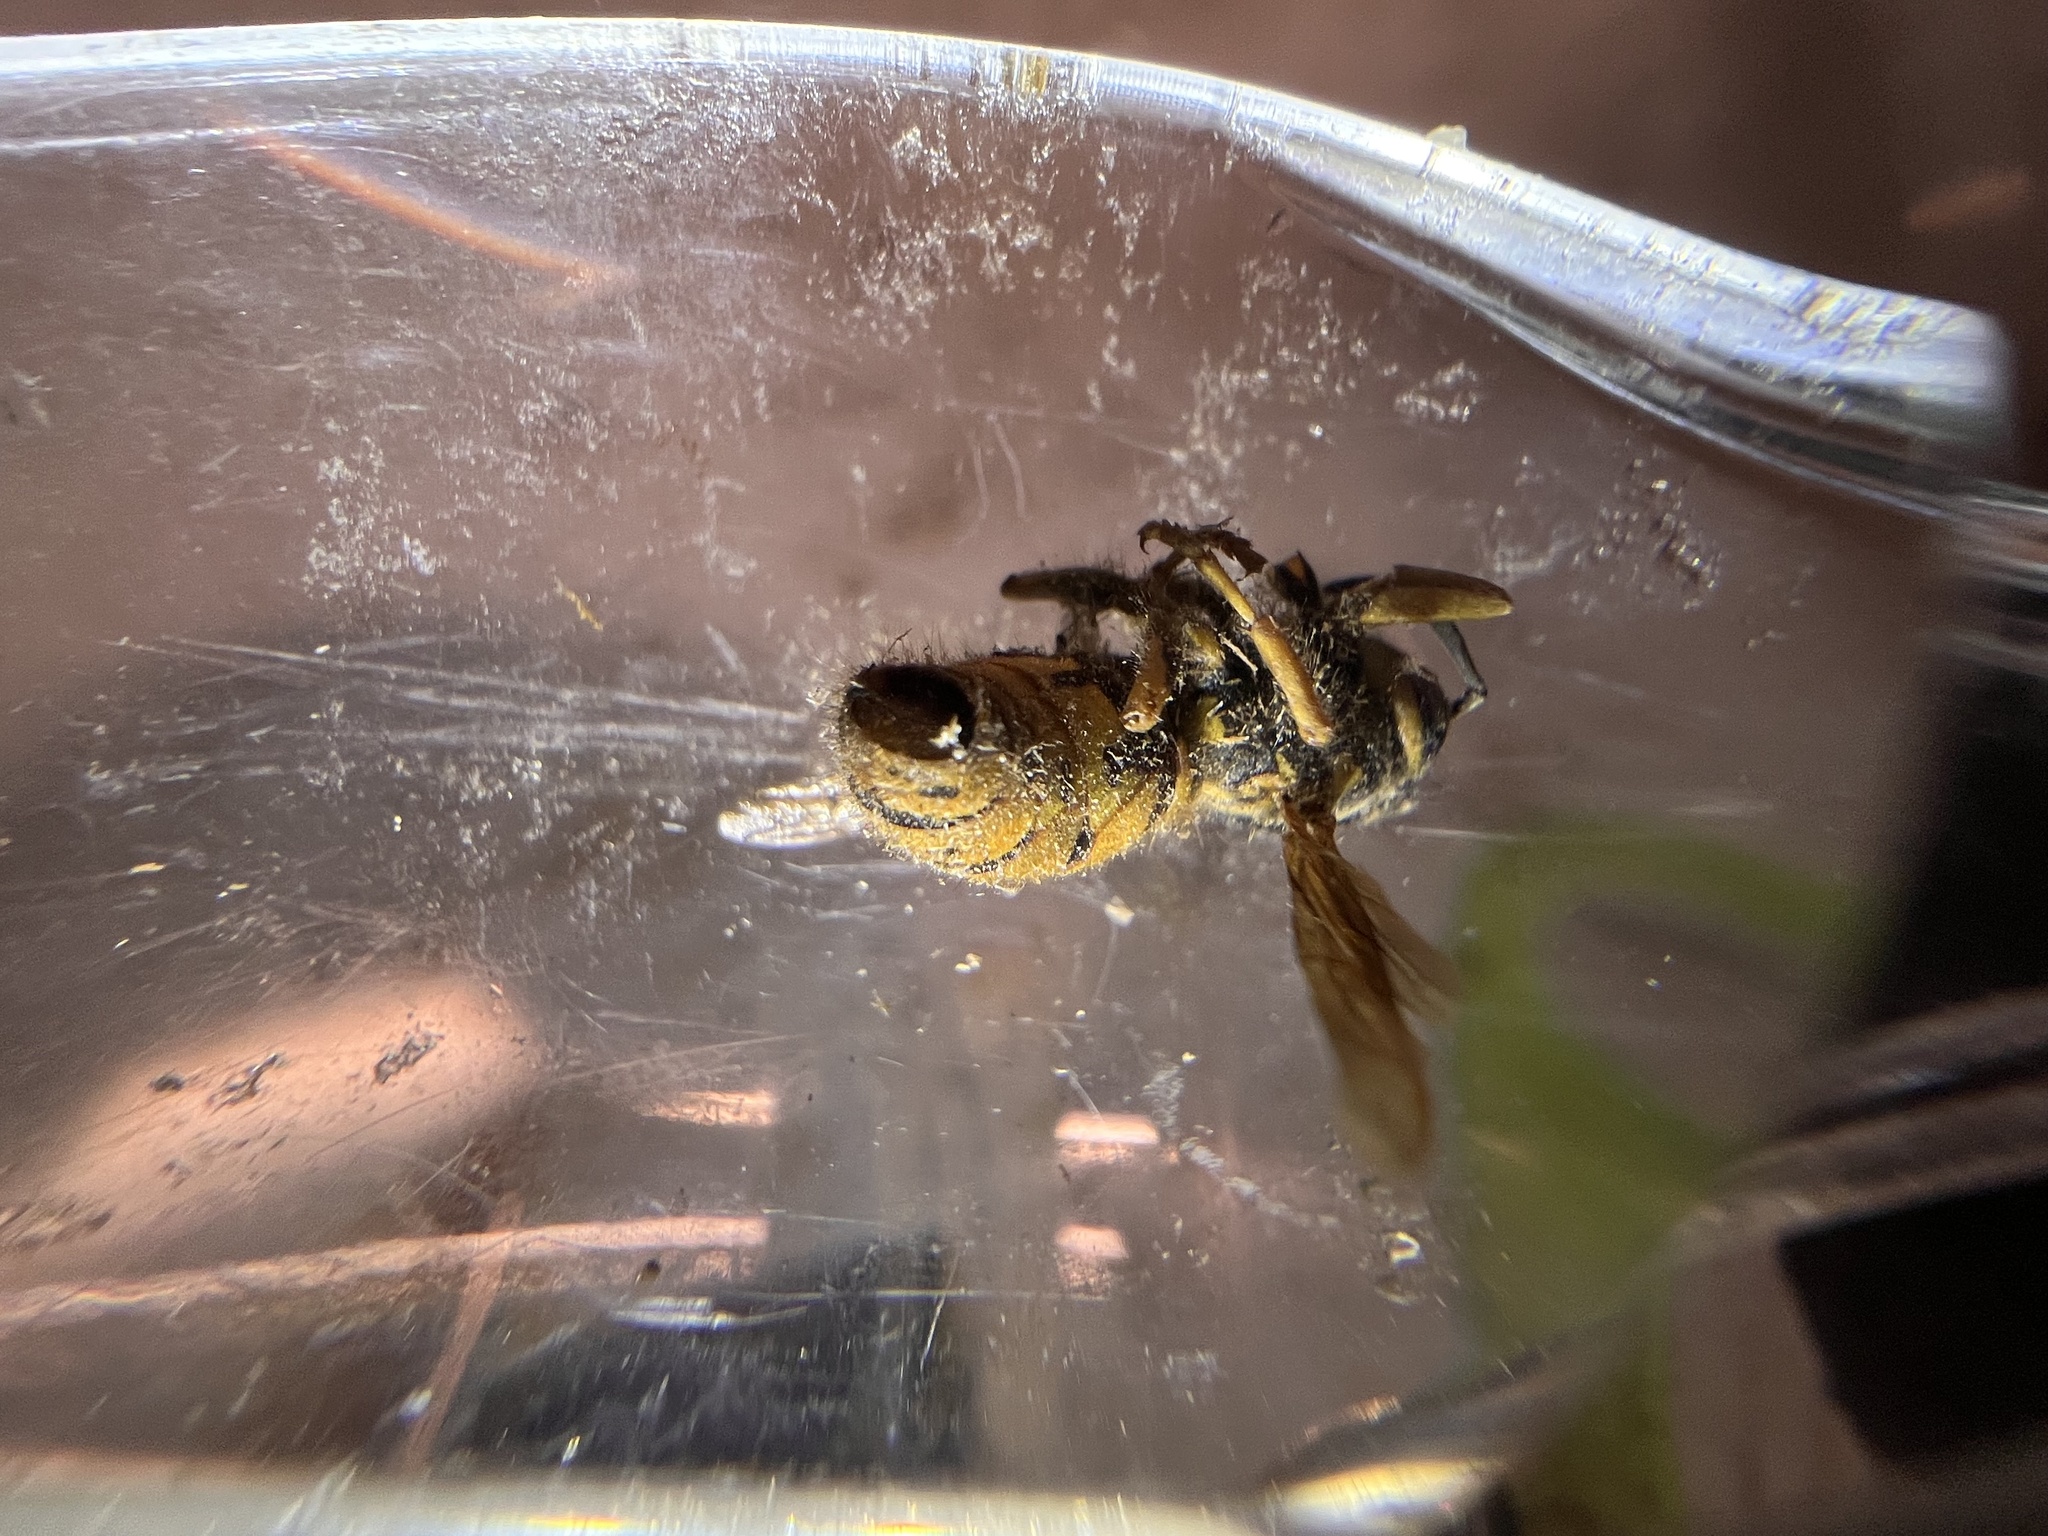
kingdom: Animalia
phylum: Arthropoda
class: Insecta
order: Hymenoptera
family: Vespidae
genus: Vespula
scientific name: Vespula pensylvanica
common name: Western yellowjacket
